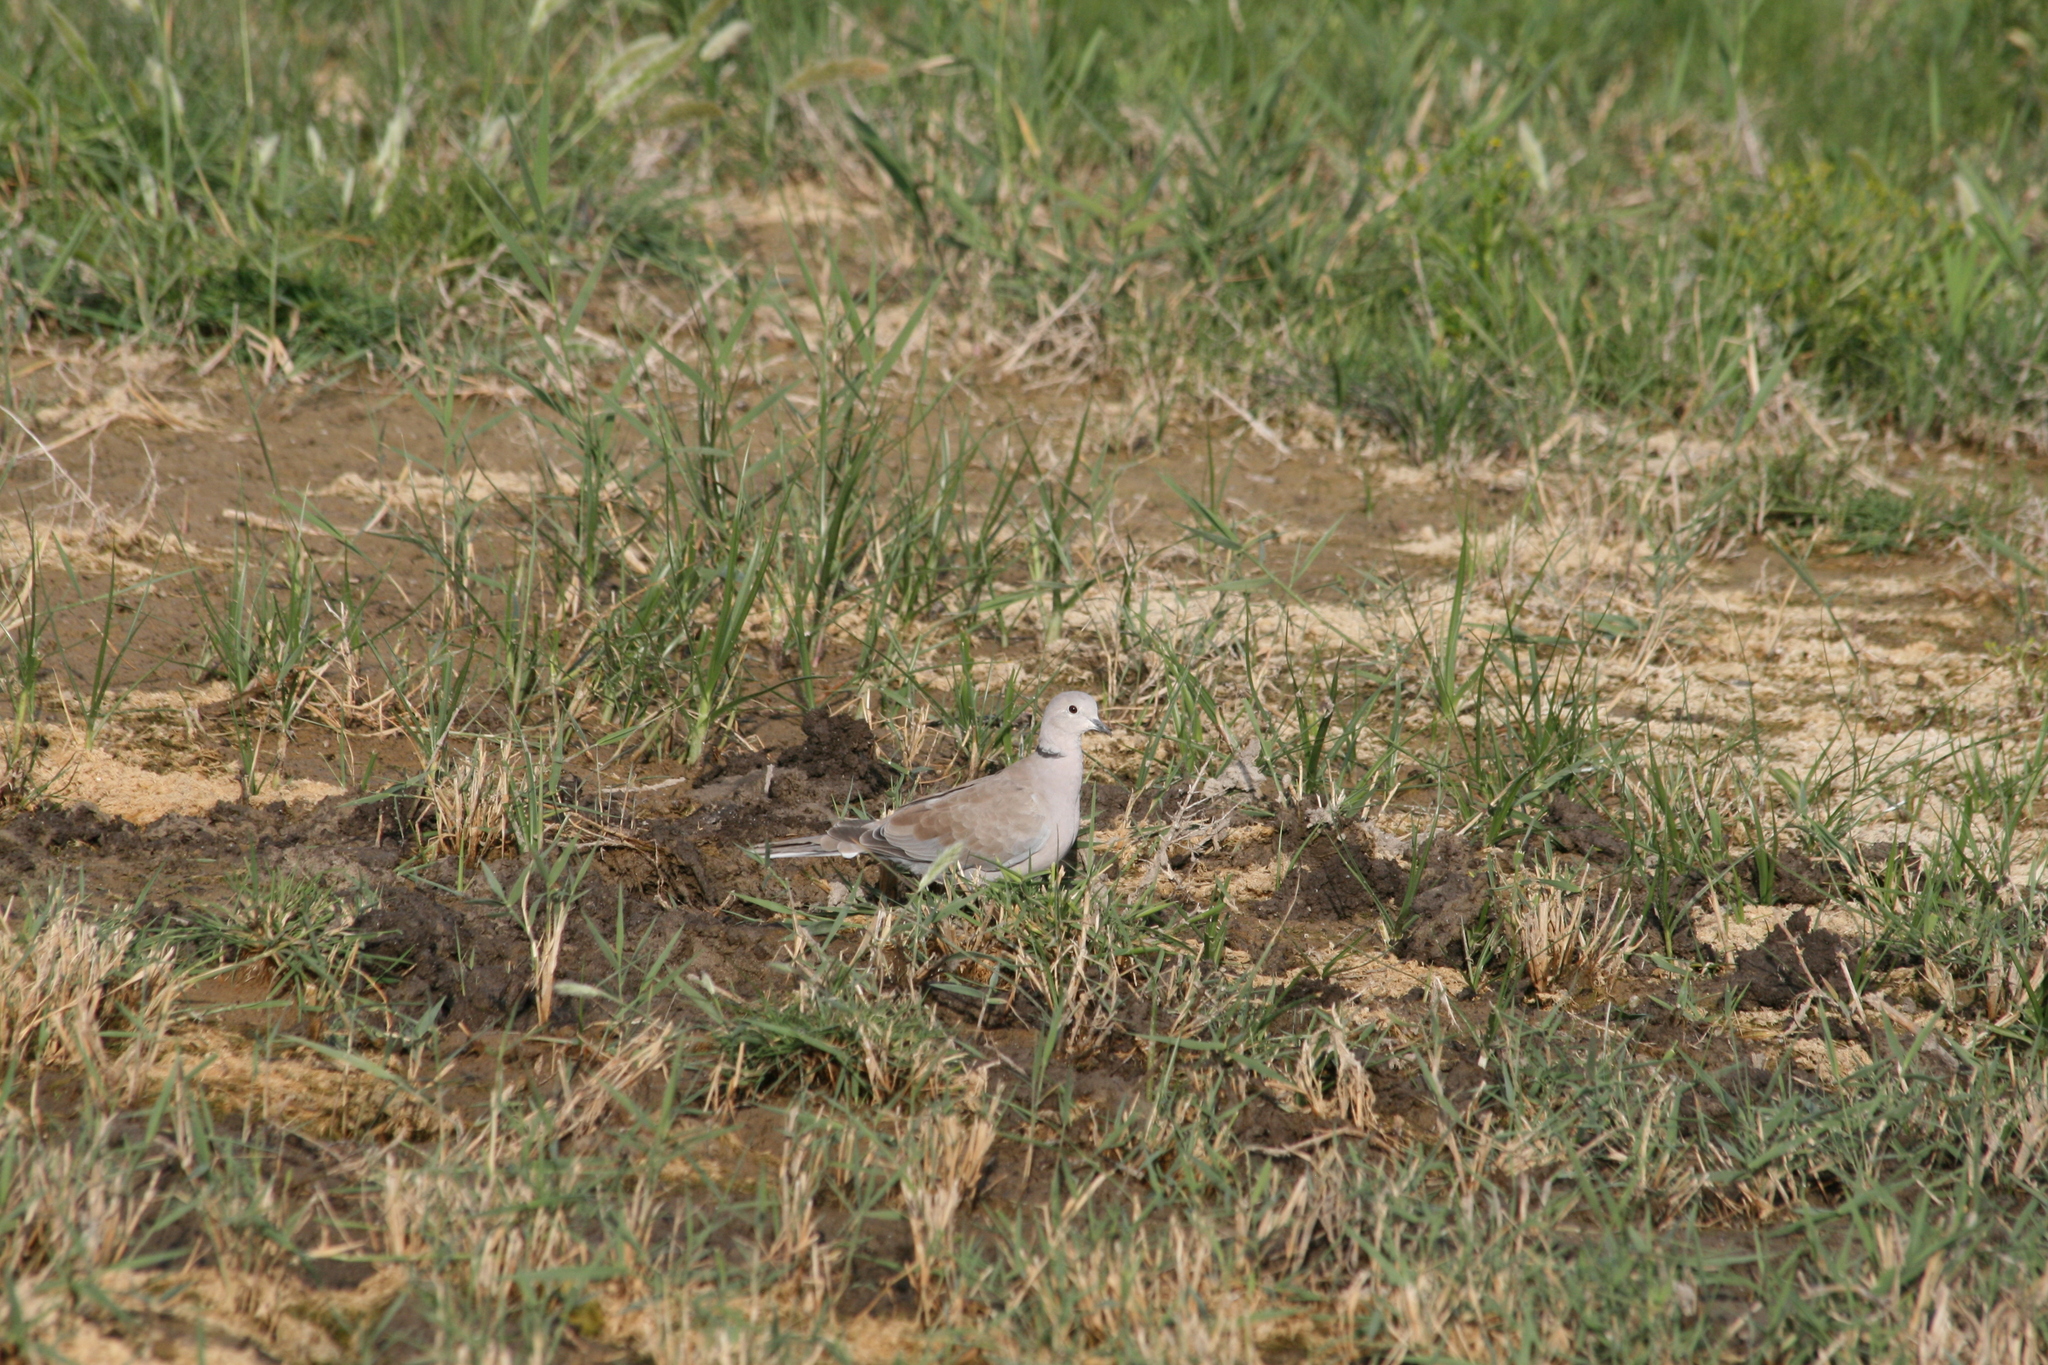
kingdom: Animalia
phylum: Chordata
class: Aves
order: Columbiformes
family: Columbidae
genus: Streptopelia
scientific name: Streptopelia decaocto
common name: Eurasian collared dove
